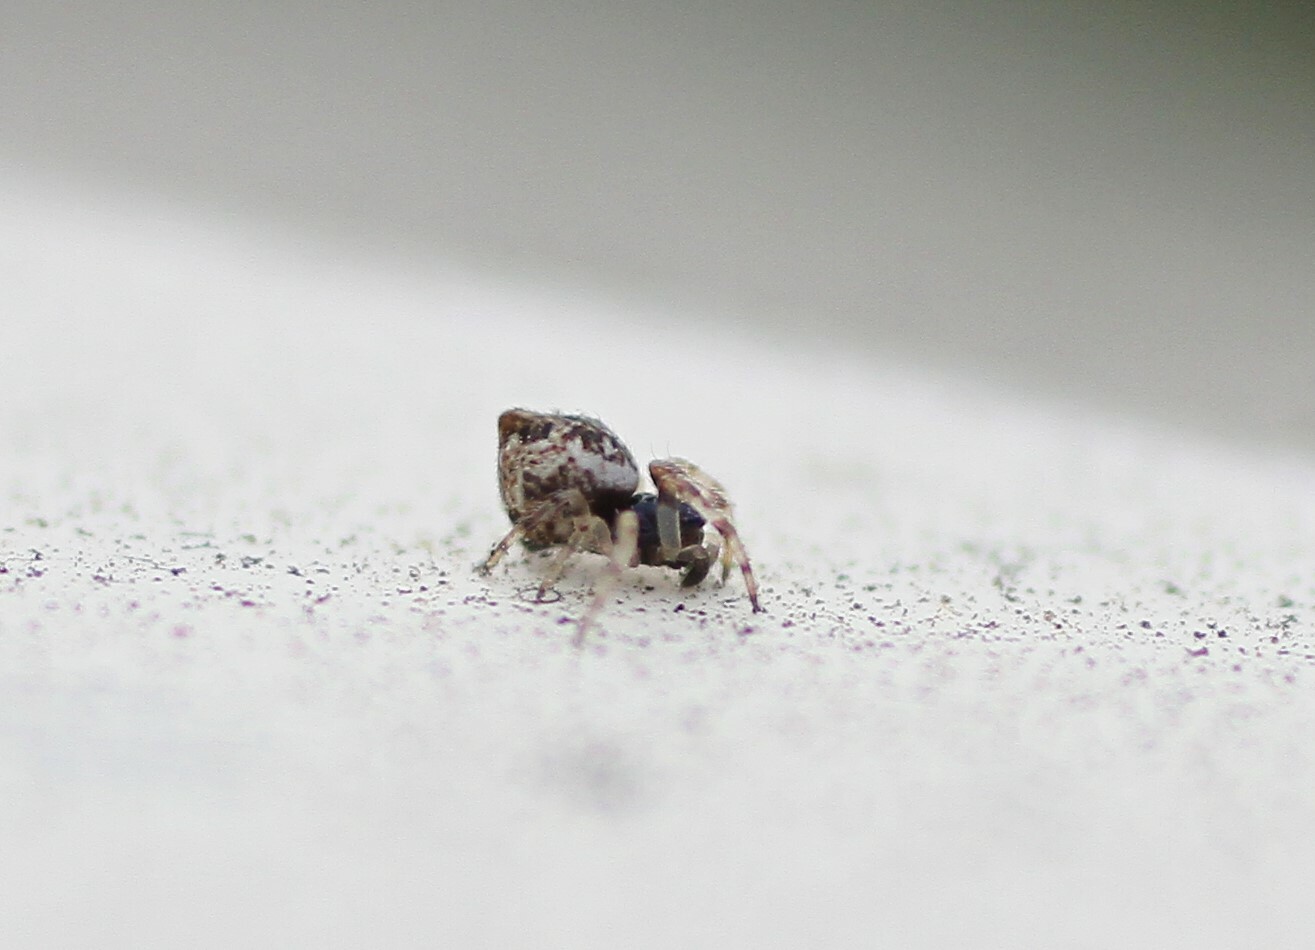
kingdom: Animalia
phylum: Arthropoda
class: Arachnida
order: Araneae
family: Araneidae
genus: Cyclosa
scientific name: Cyclosa turbinata
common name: Orb weavers
